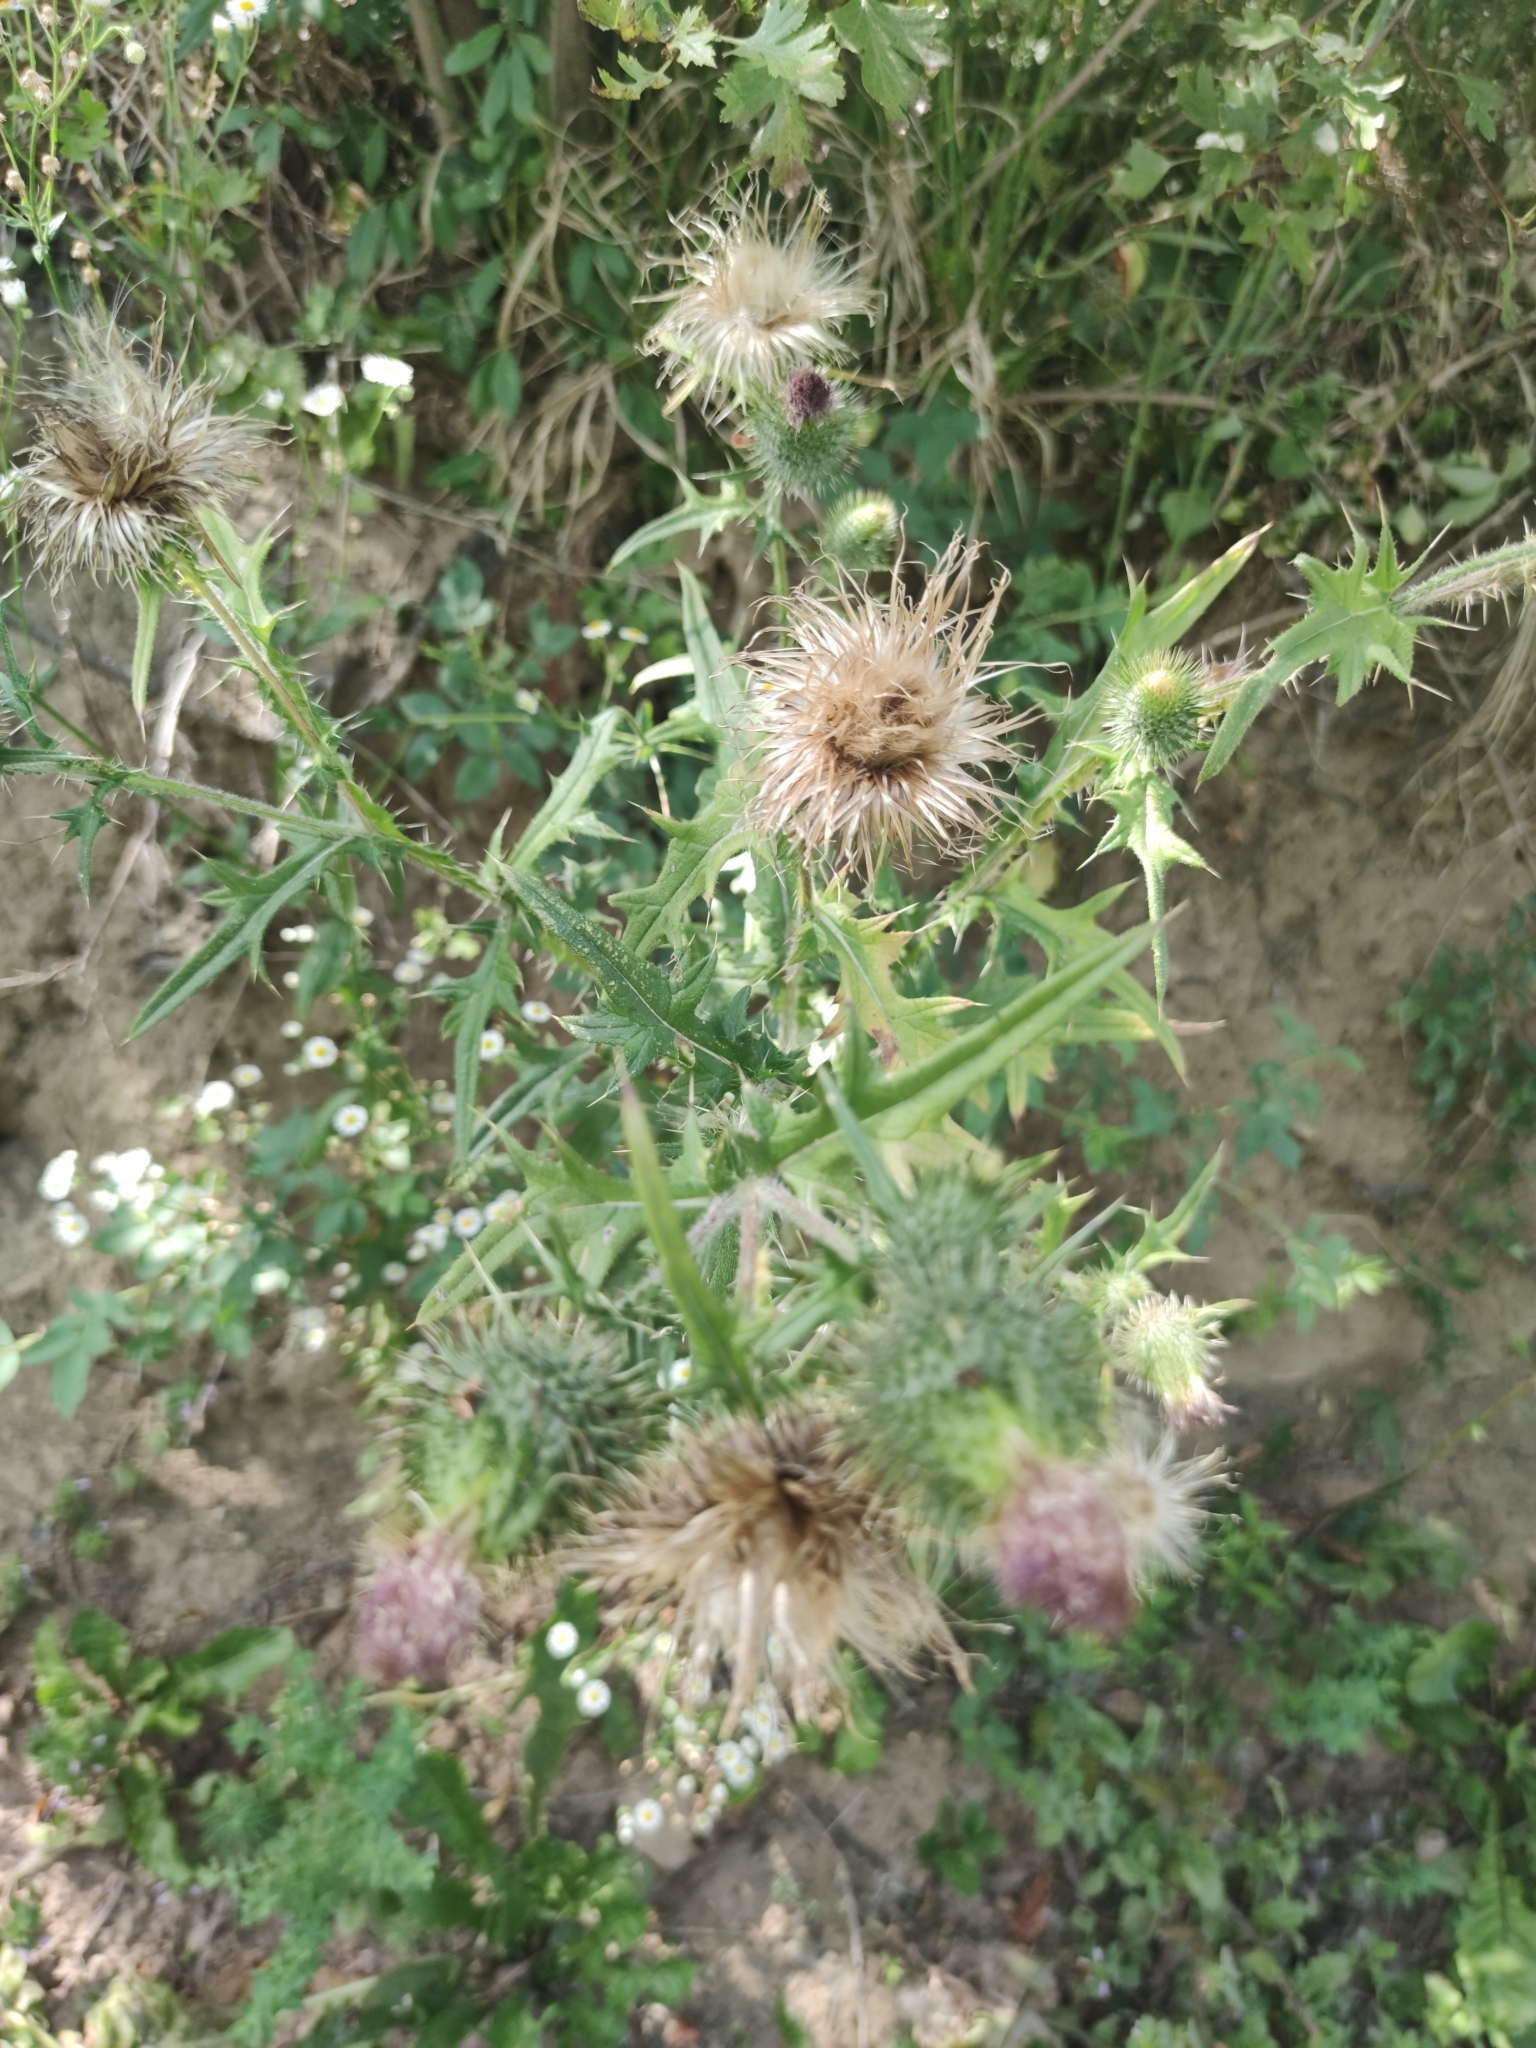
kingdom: Plantae
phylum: Tracheophyta
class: Magnoliopsida
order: Asterales
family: Asteraceae
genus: Cirsium
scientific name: Cirsium vulgare
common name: Bull thistle
